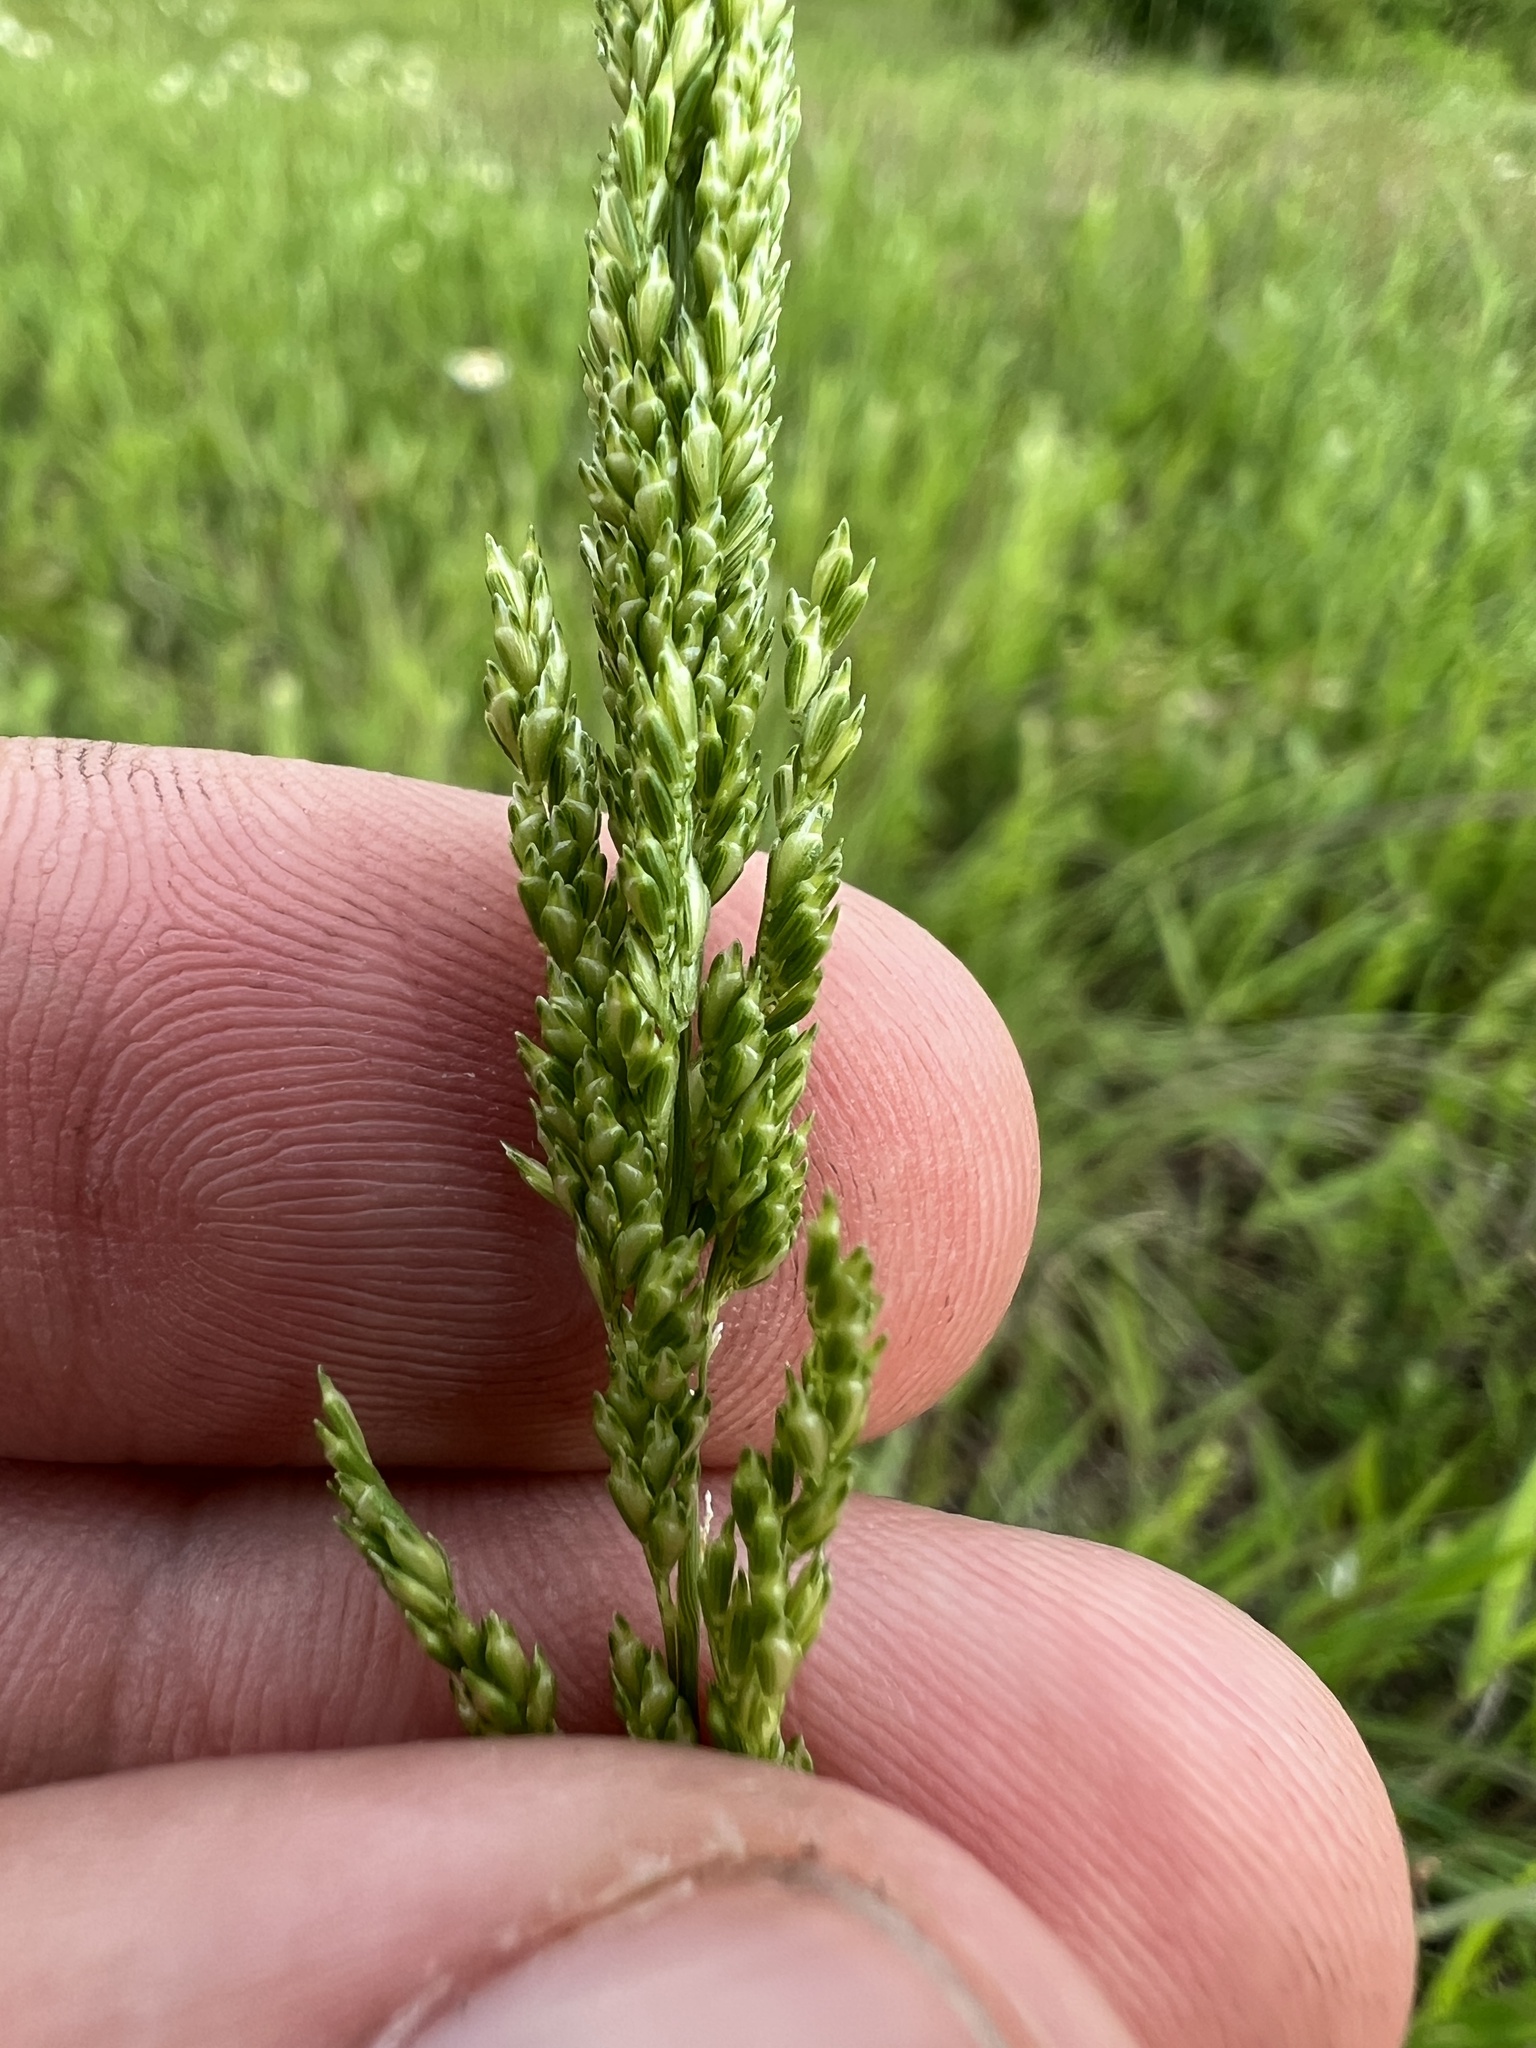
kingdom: Plantae
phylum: Tracheophyta
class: Liliopsida
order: Poales
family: Poaceae
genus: Sphenopholis
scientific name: Sphenopholis obtusata
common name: Prairie grass
